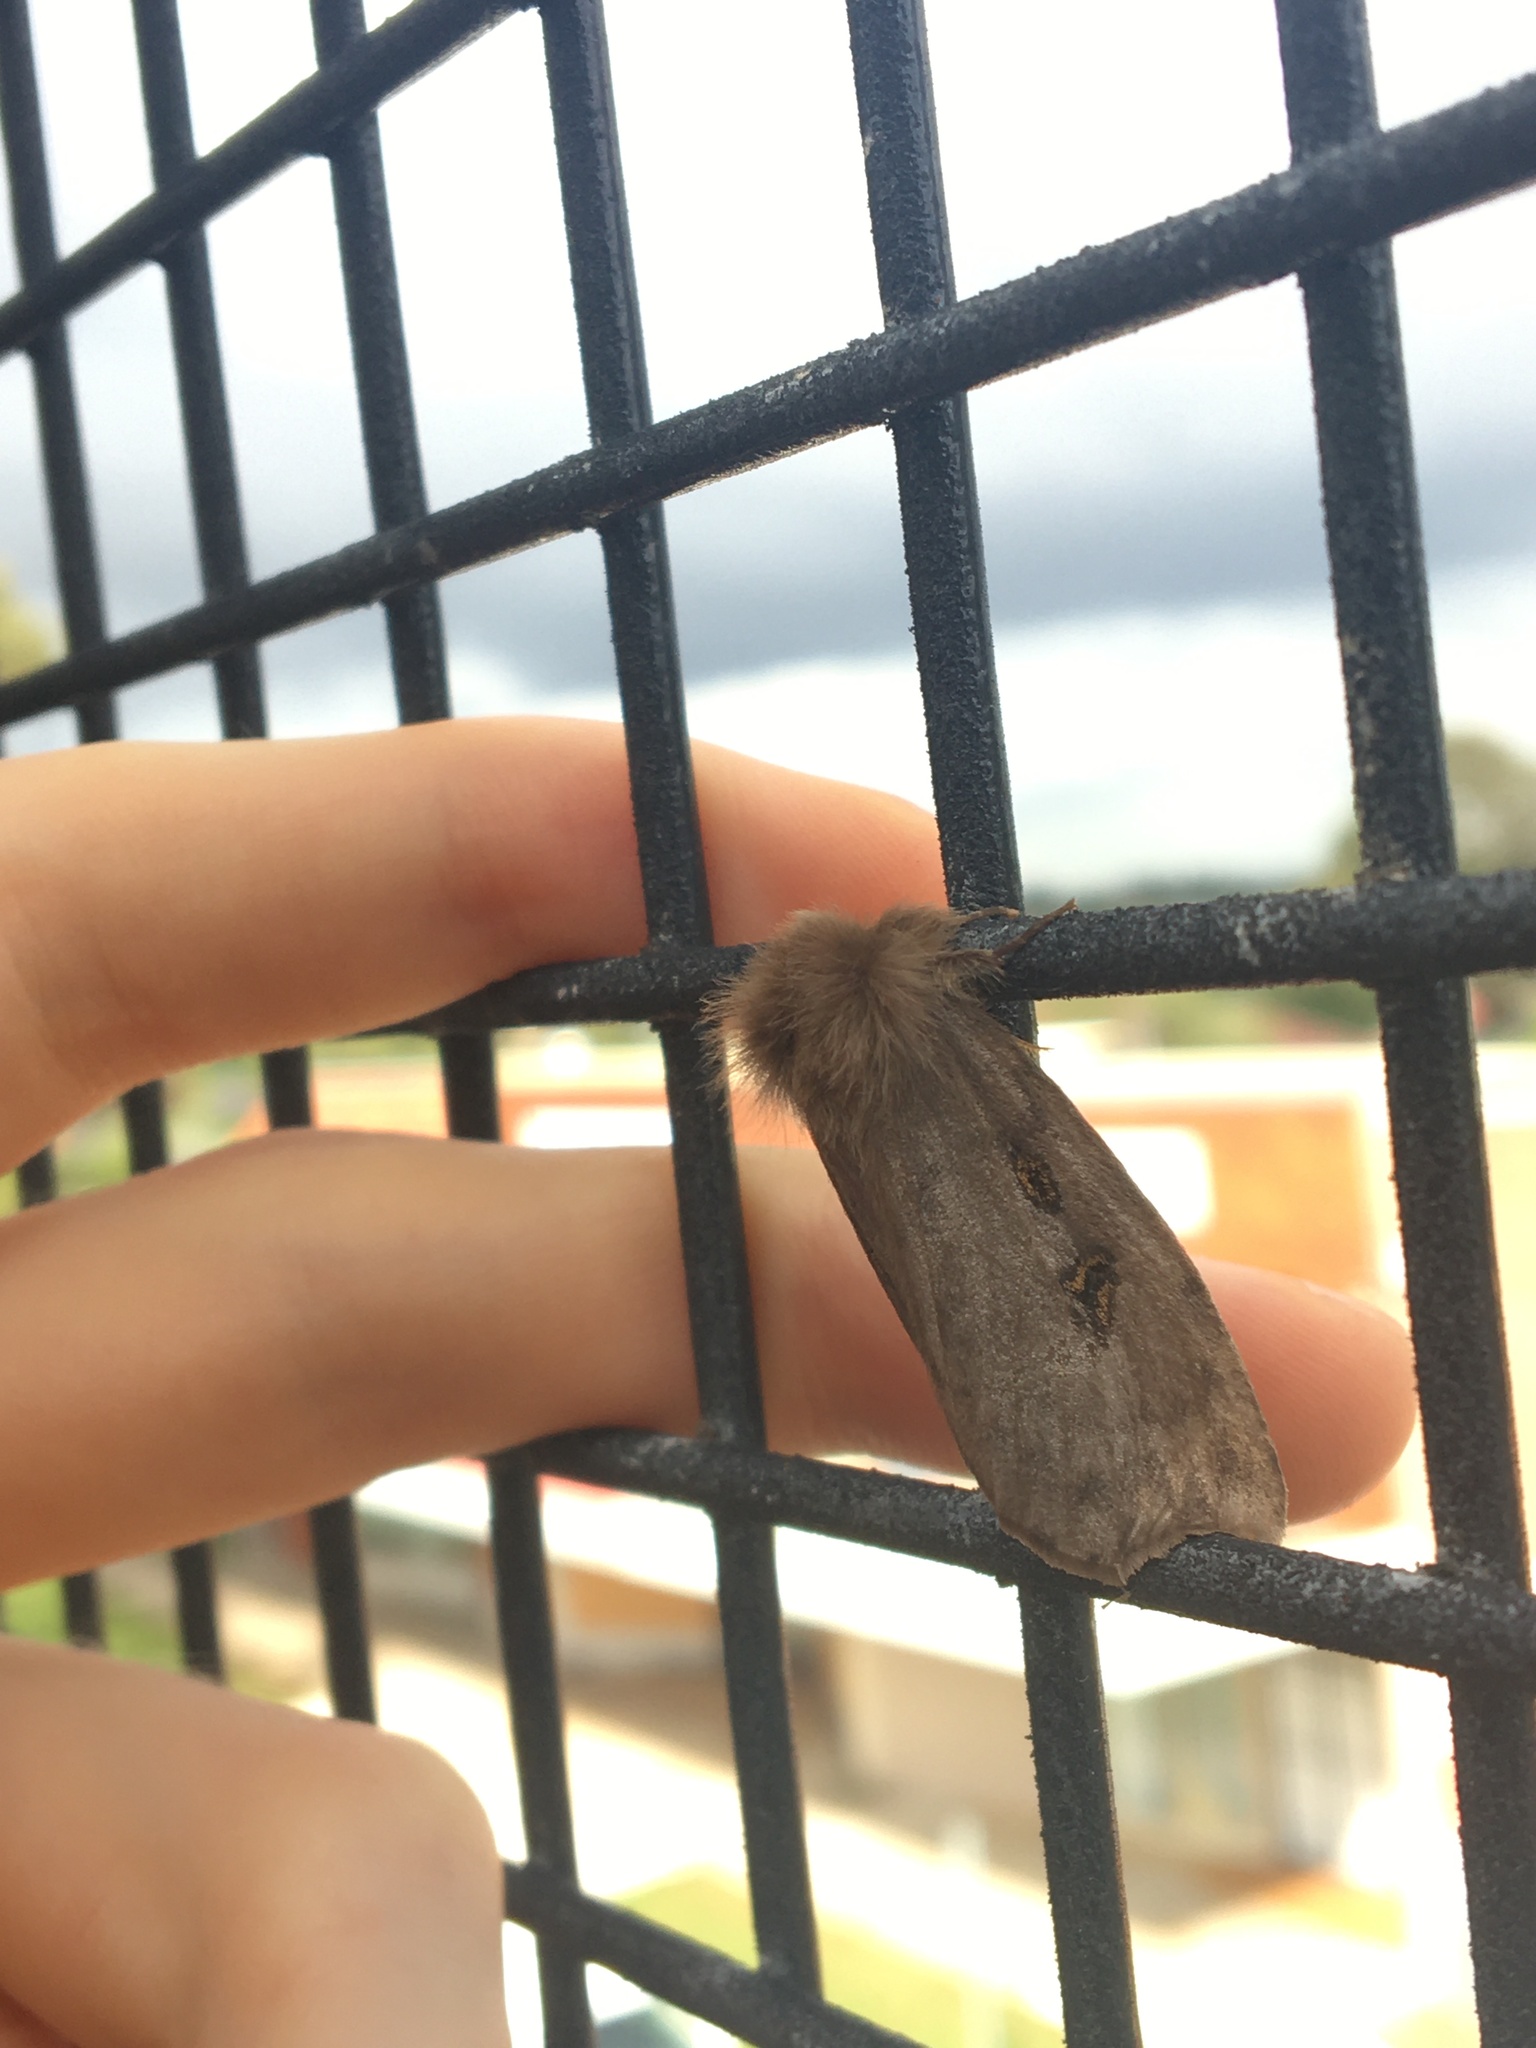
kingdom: Animalia
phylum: Arthropoda
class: Insecta
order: Lepidoptera
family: Erebidae
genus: Leptocneria
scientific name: Leptocneria reducta
